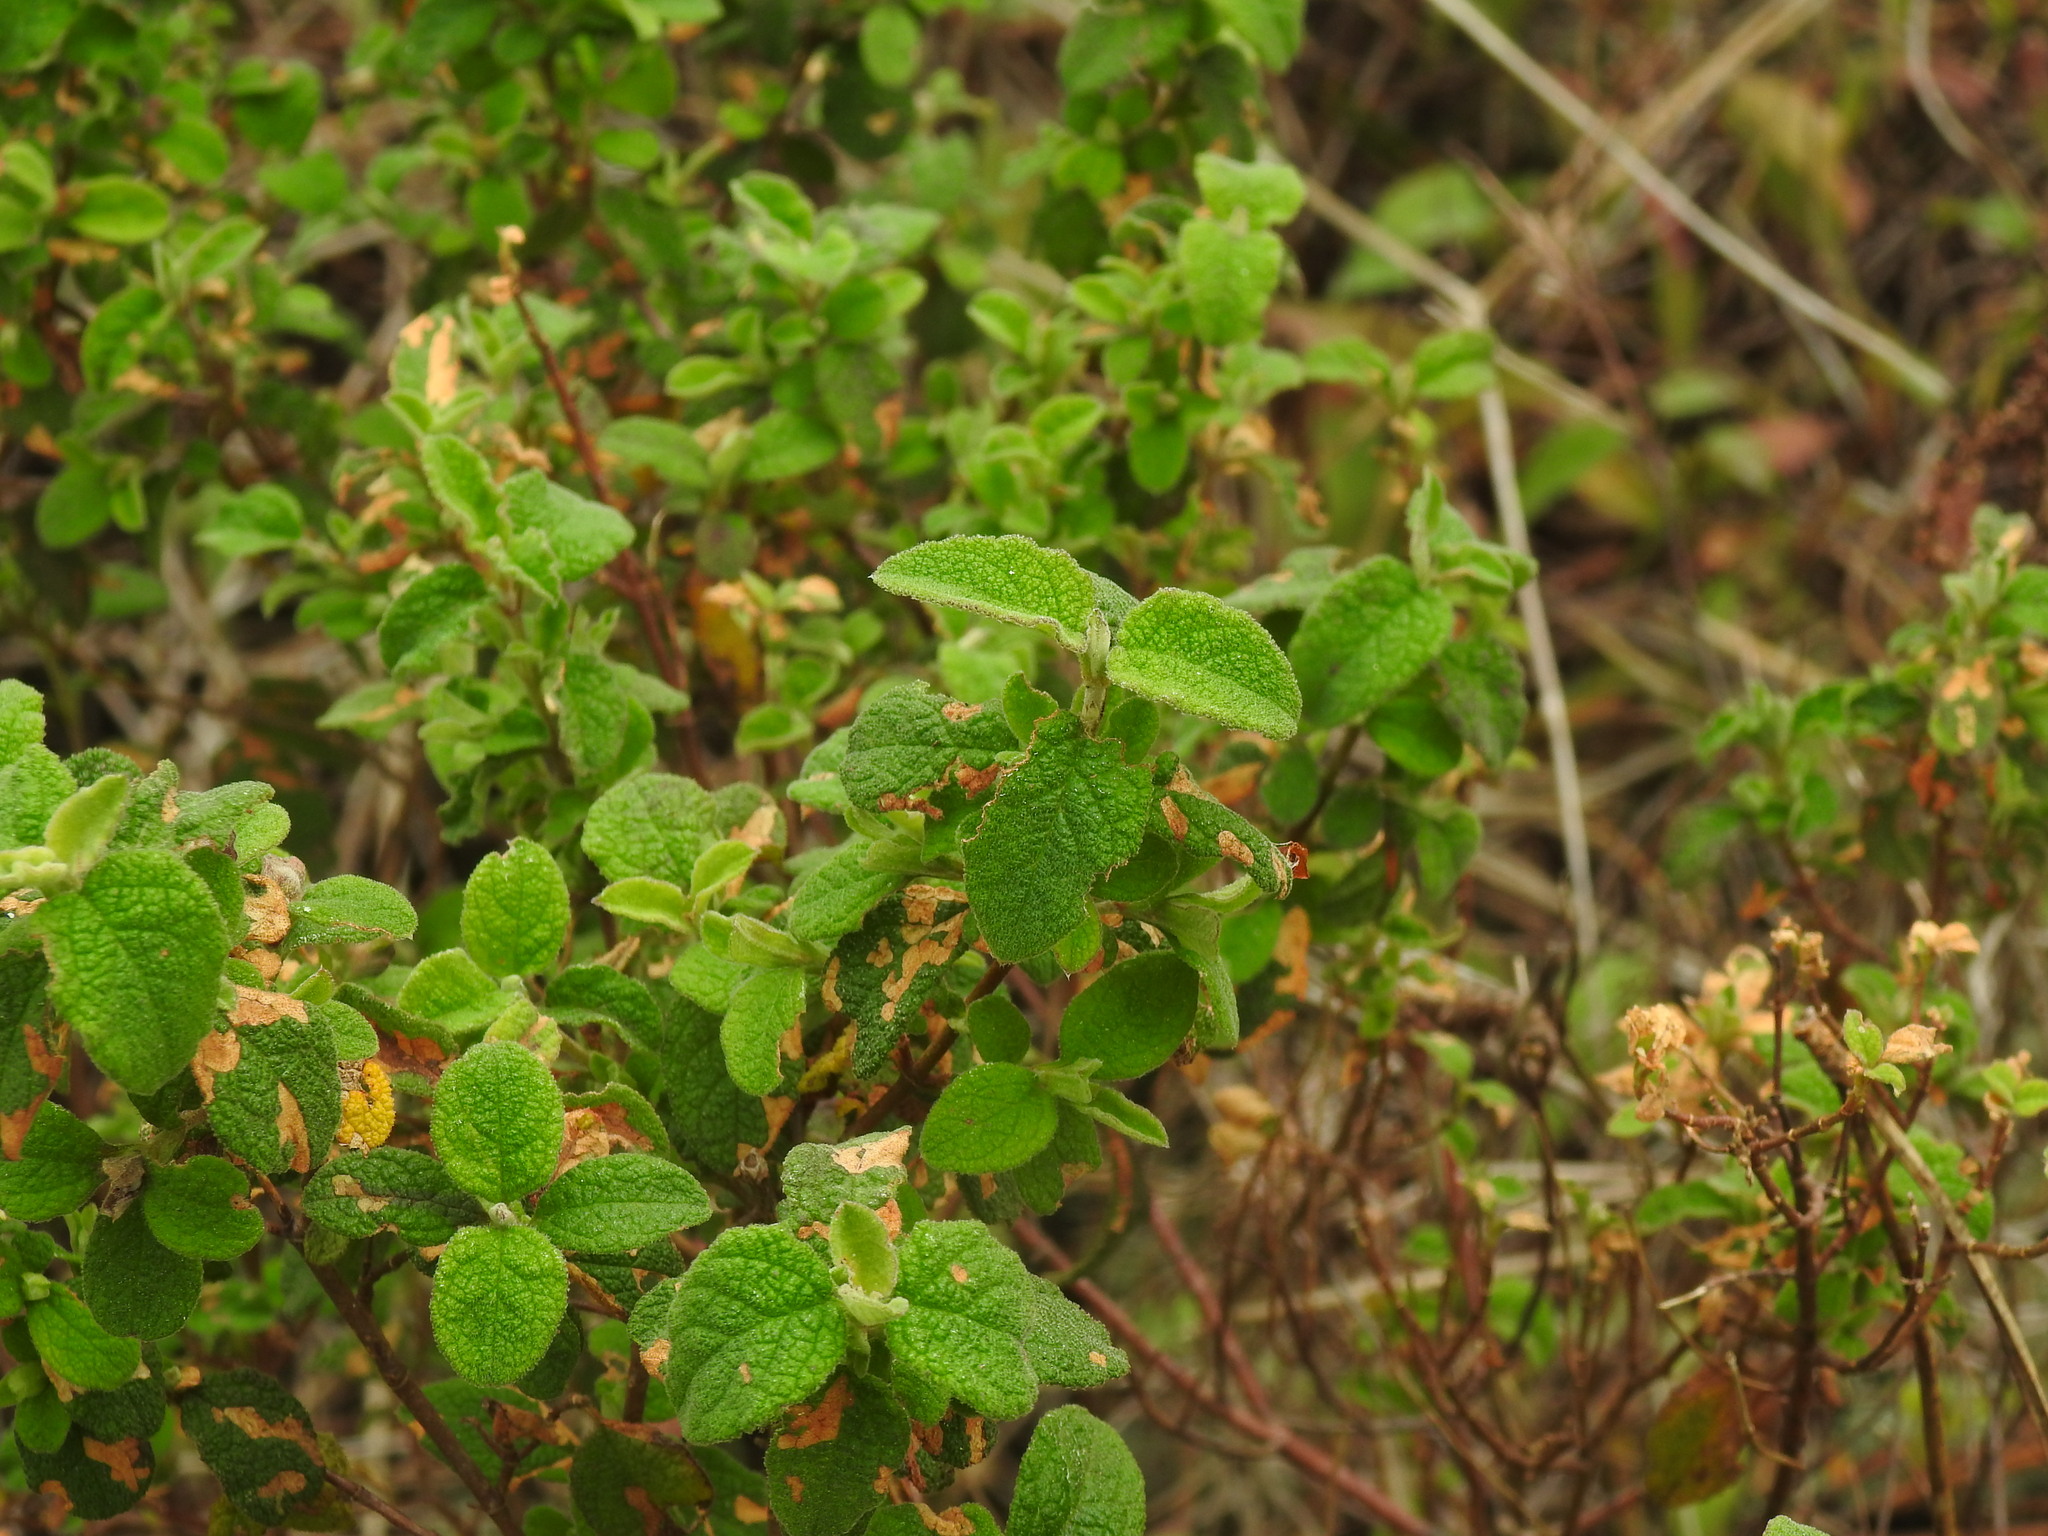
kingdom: Plantae
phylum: Tracheophyta
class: Magnoliopsida
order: Malvales
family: Cistaceae
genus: Cistus
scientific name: Cistus salviifolius
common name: Salvia cistus
